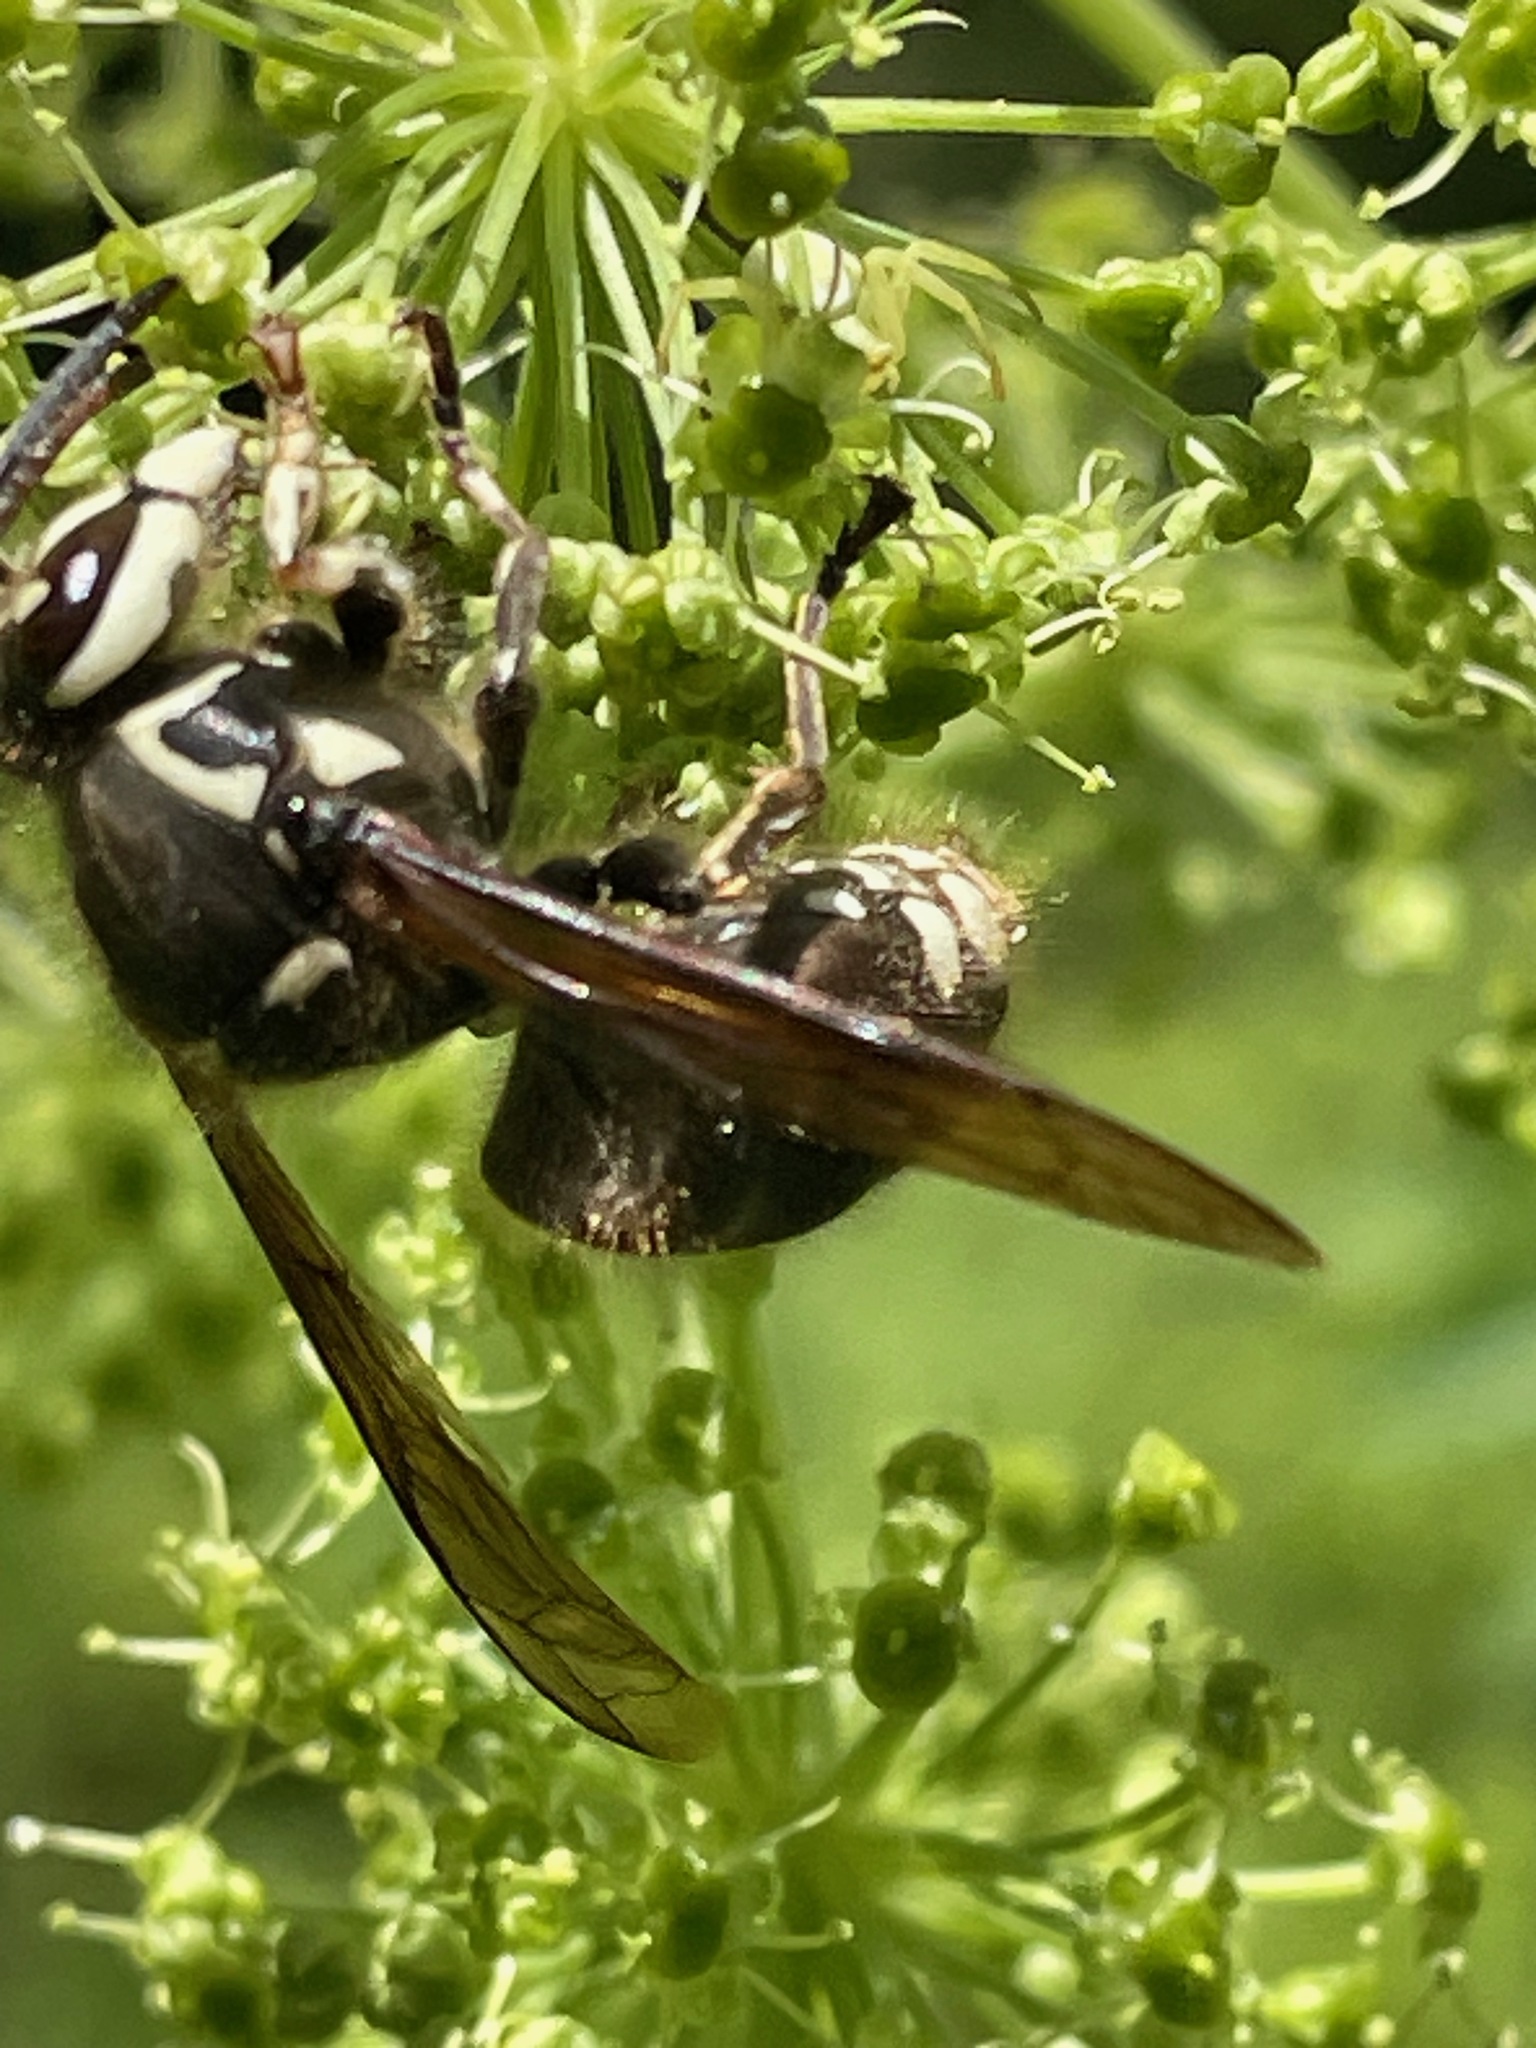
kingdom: Animalia
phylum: Arthropoda
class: Insecta
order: Hymenoptera
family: Vespidae
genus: Dolichovespula
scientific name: Dolichovespula maculata
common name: Bald-faced hornet
